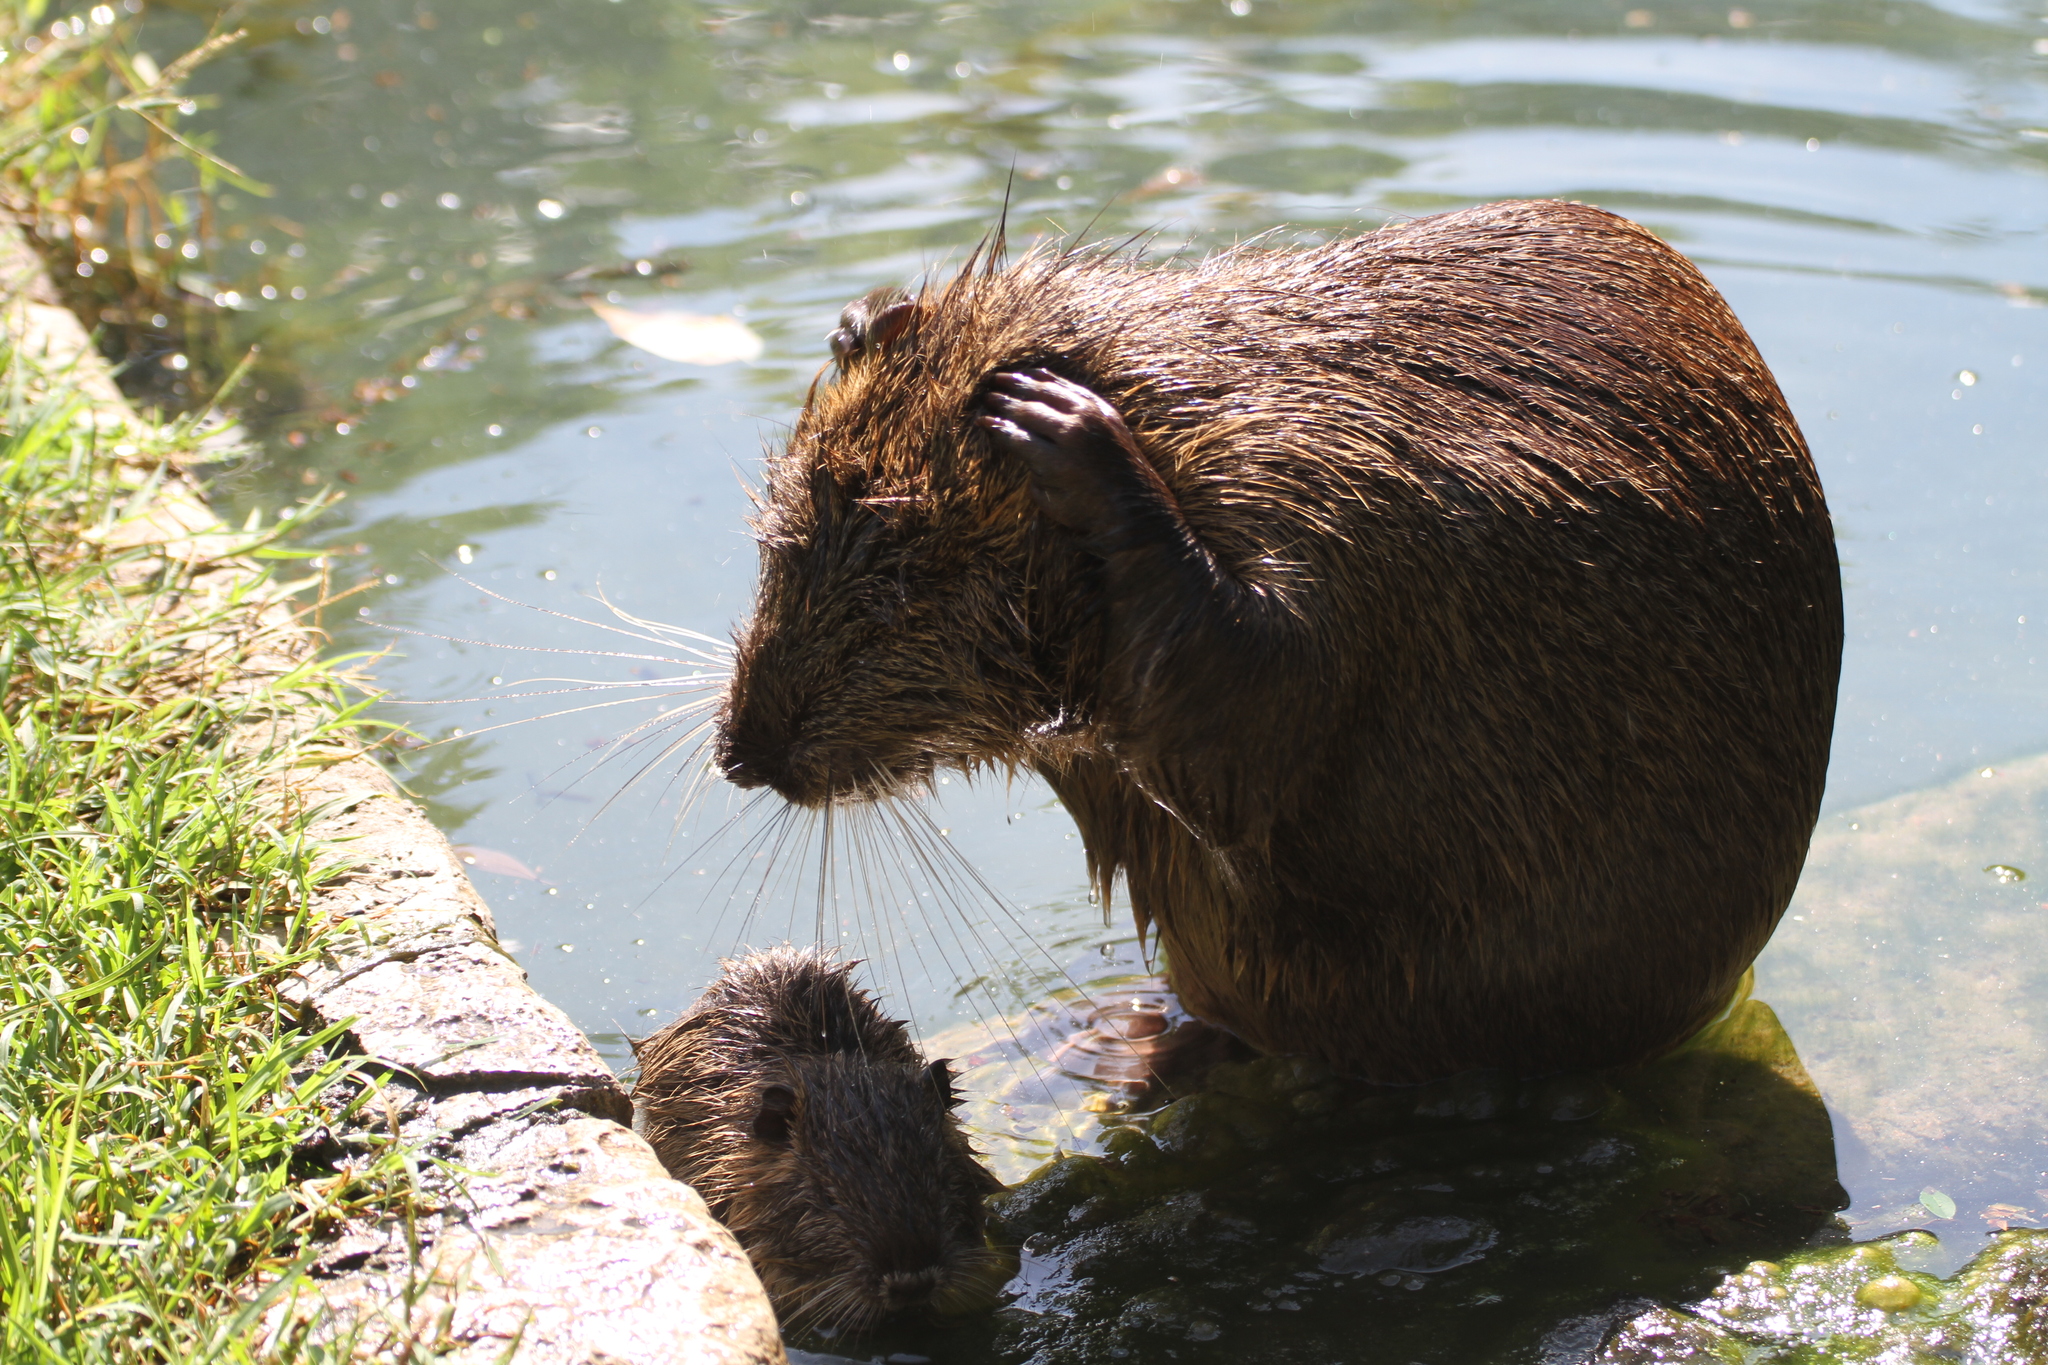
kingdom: Animalia
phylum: Chordata
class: Mammalia
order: Rodentia
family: Myocastoridae
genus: Myocastor
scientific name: Myocastor coypus
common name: Coypu
